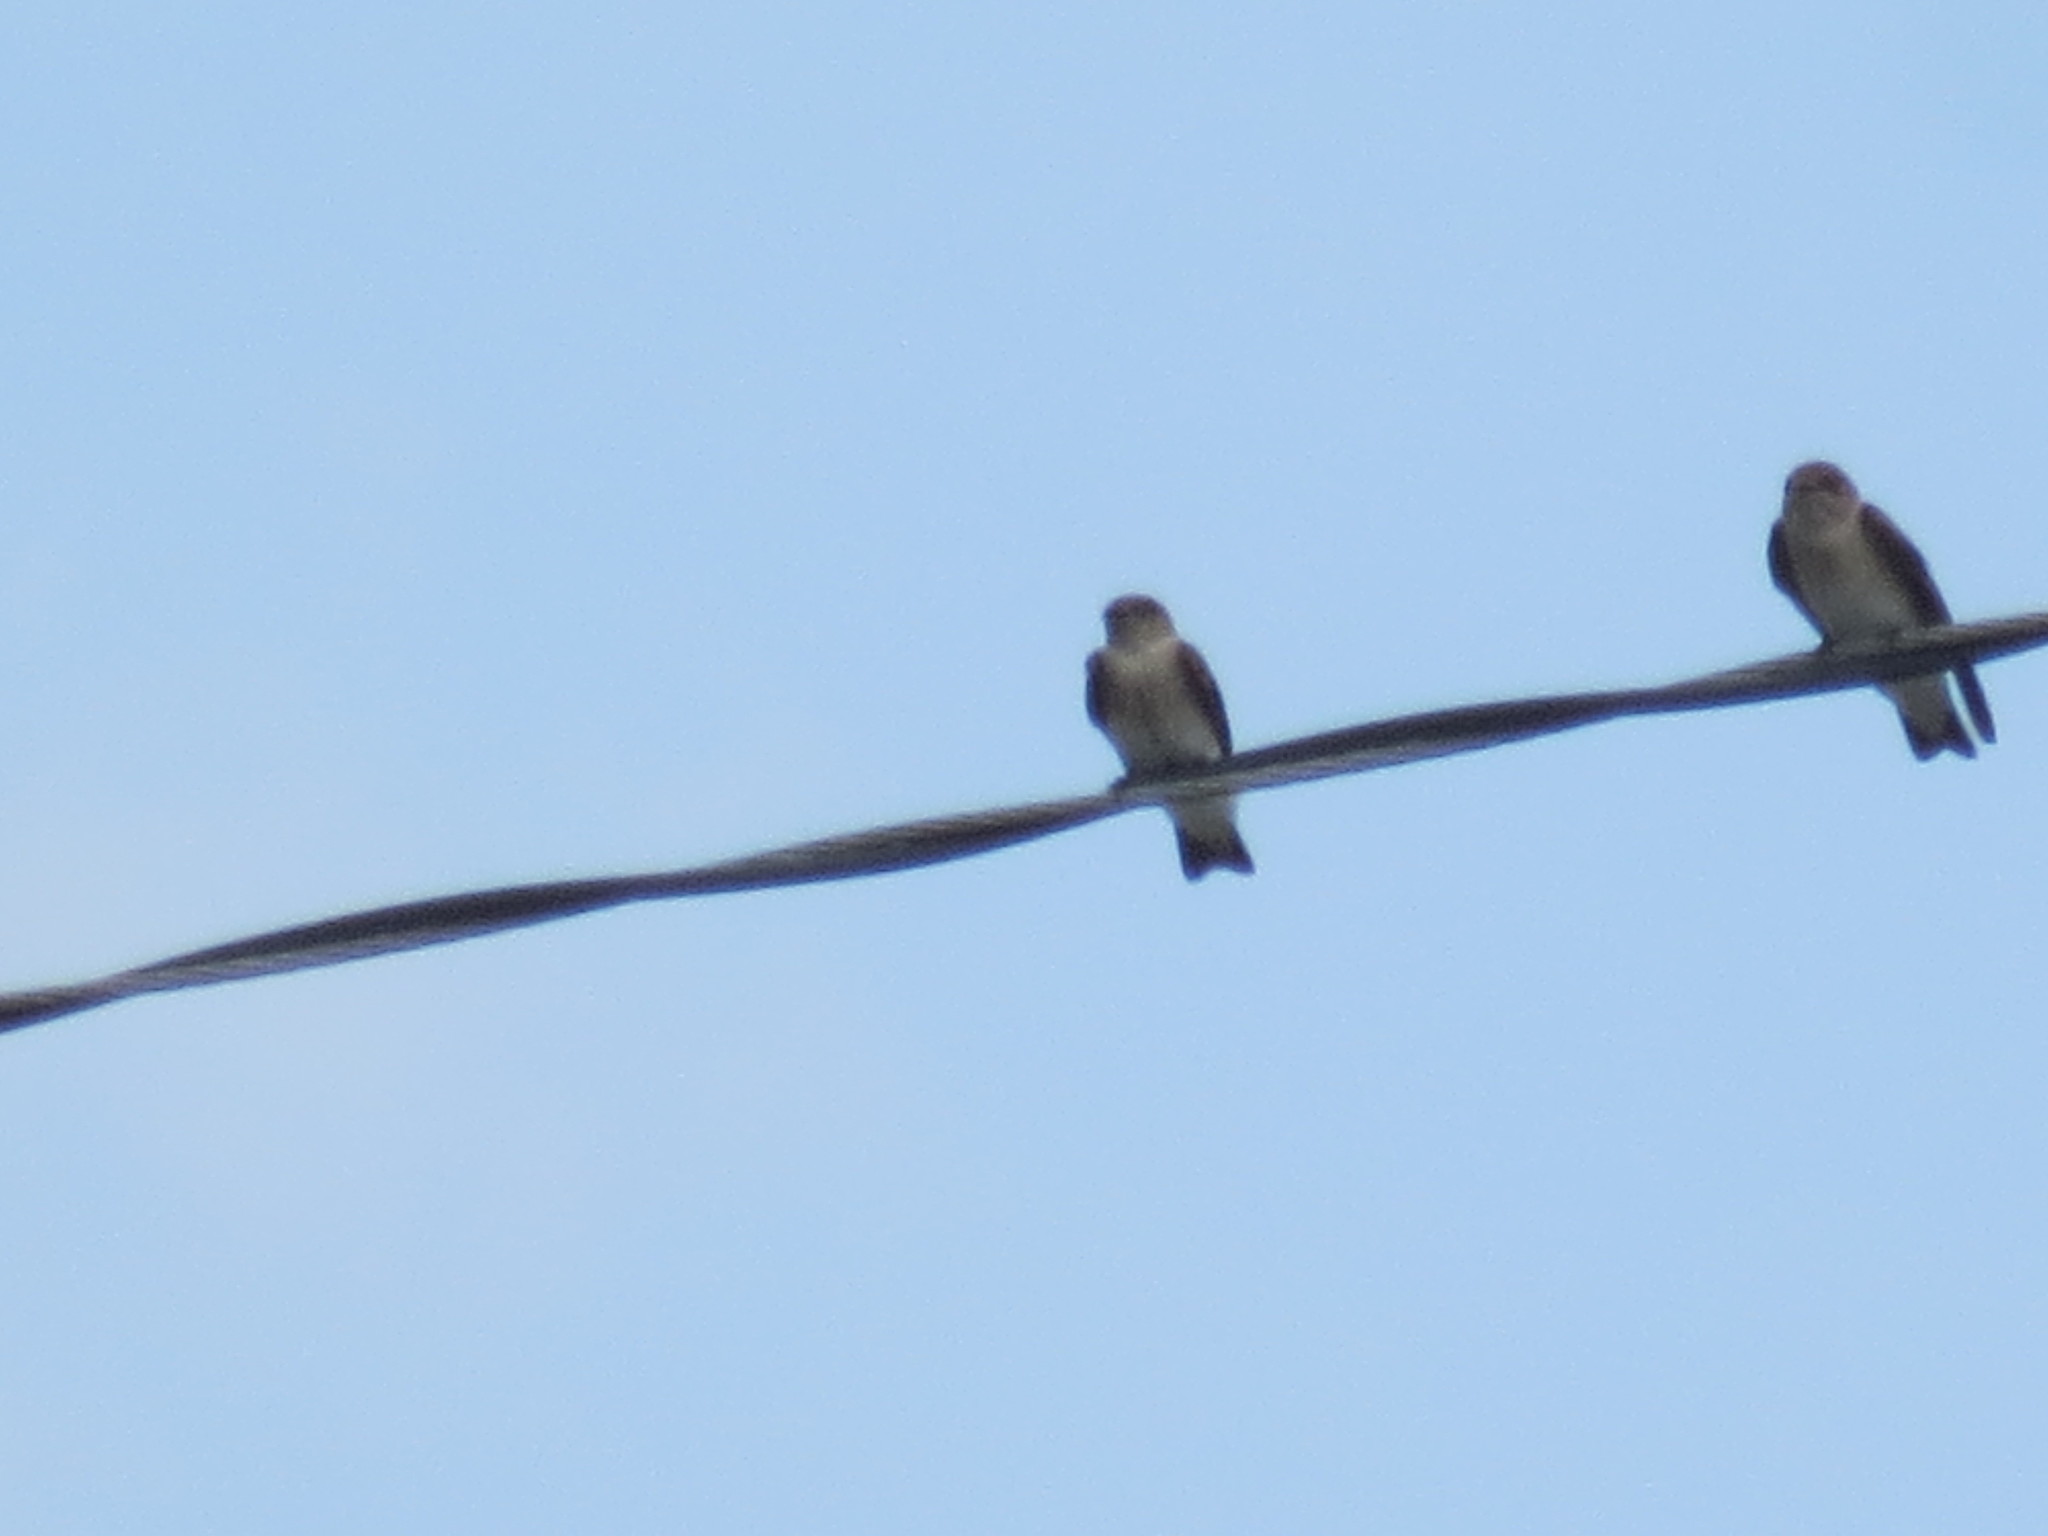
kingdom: Animalia
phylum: Chordata
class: Aves
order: Passeriformes
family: Hirundinidae
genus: Stelgidopteryx
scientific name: Stelgidopteryx serripennis
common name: Northern rough-winged swallow
